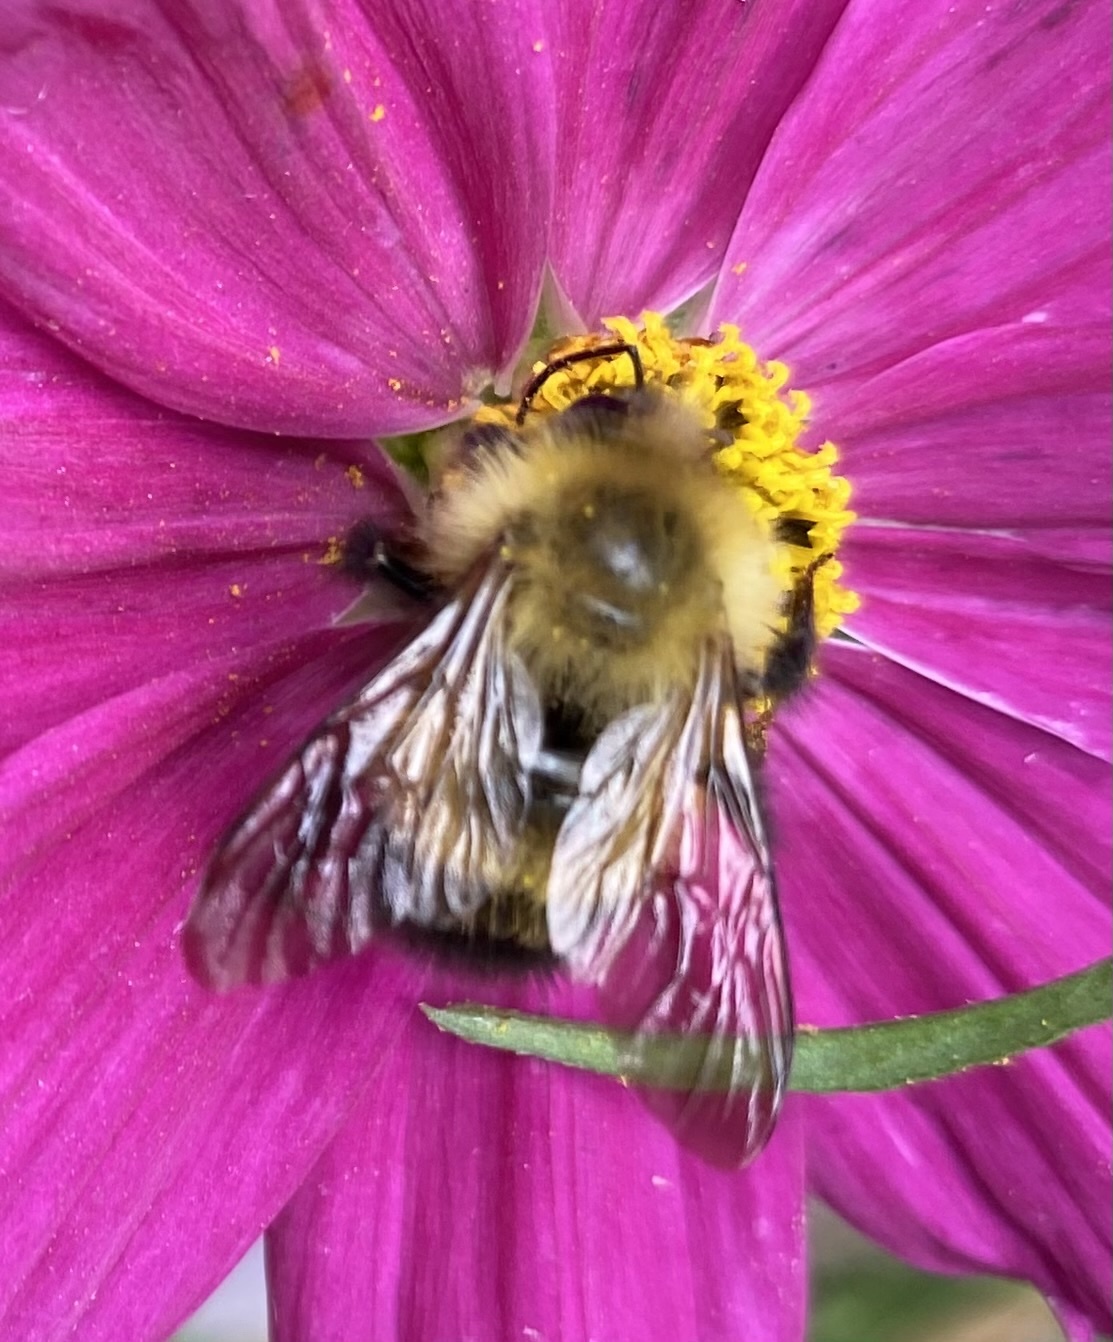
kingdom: Animalia
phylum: Arthropoda
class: Insecta
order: Hymenoptera
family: Apidae
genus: Bombus
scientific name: Bombus perplexus
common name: Confusing bumble bee
